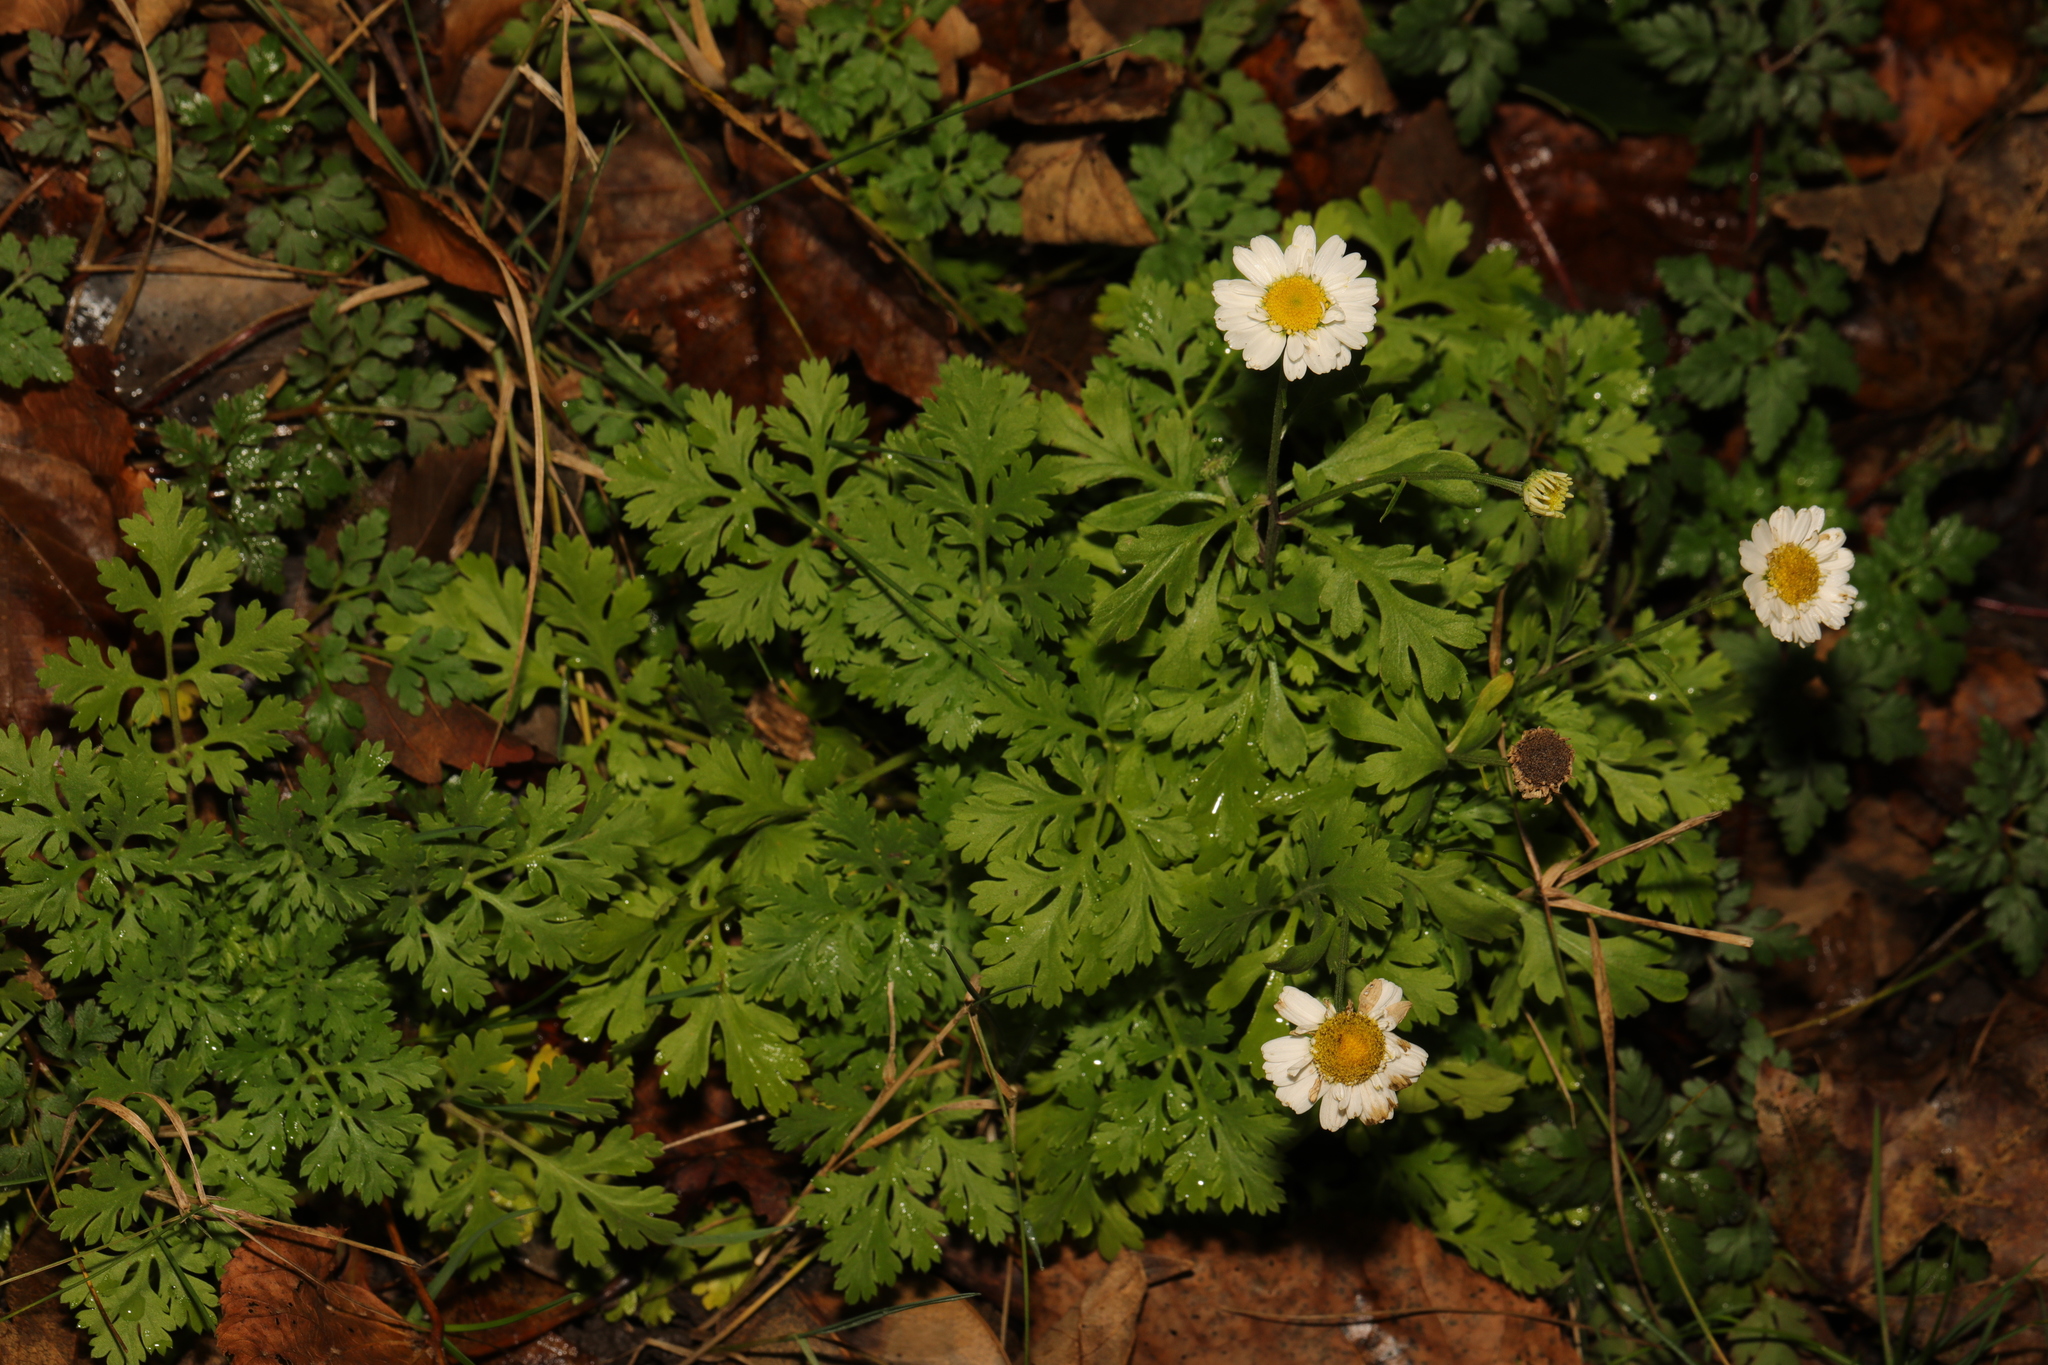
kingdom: Plantae
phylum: Tracheophyta
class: Magnoliopsida
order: Asterales
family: Asteraceae
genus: Tanacetum
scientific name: Tanacetum parthenium
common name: Feverfew
